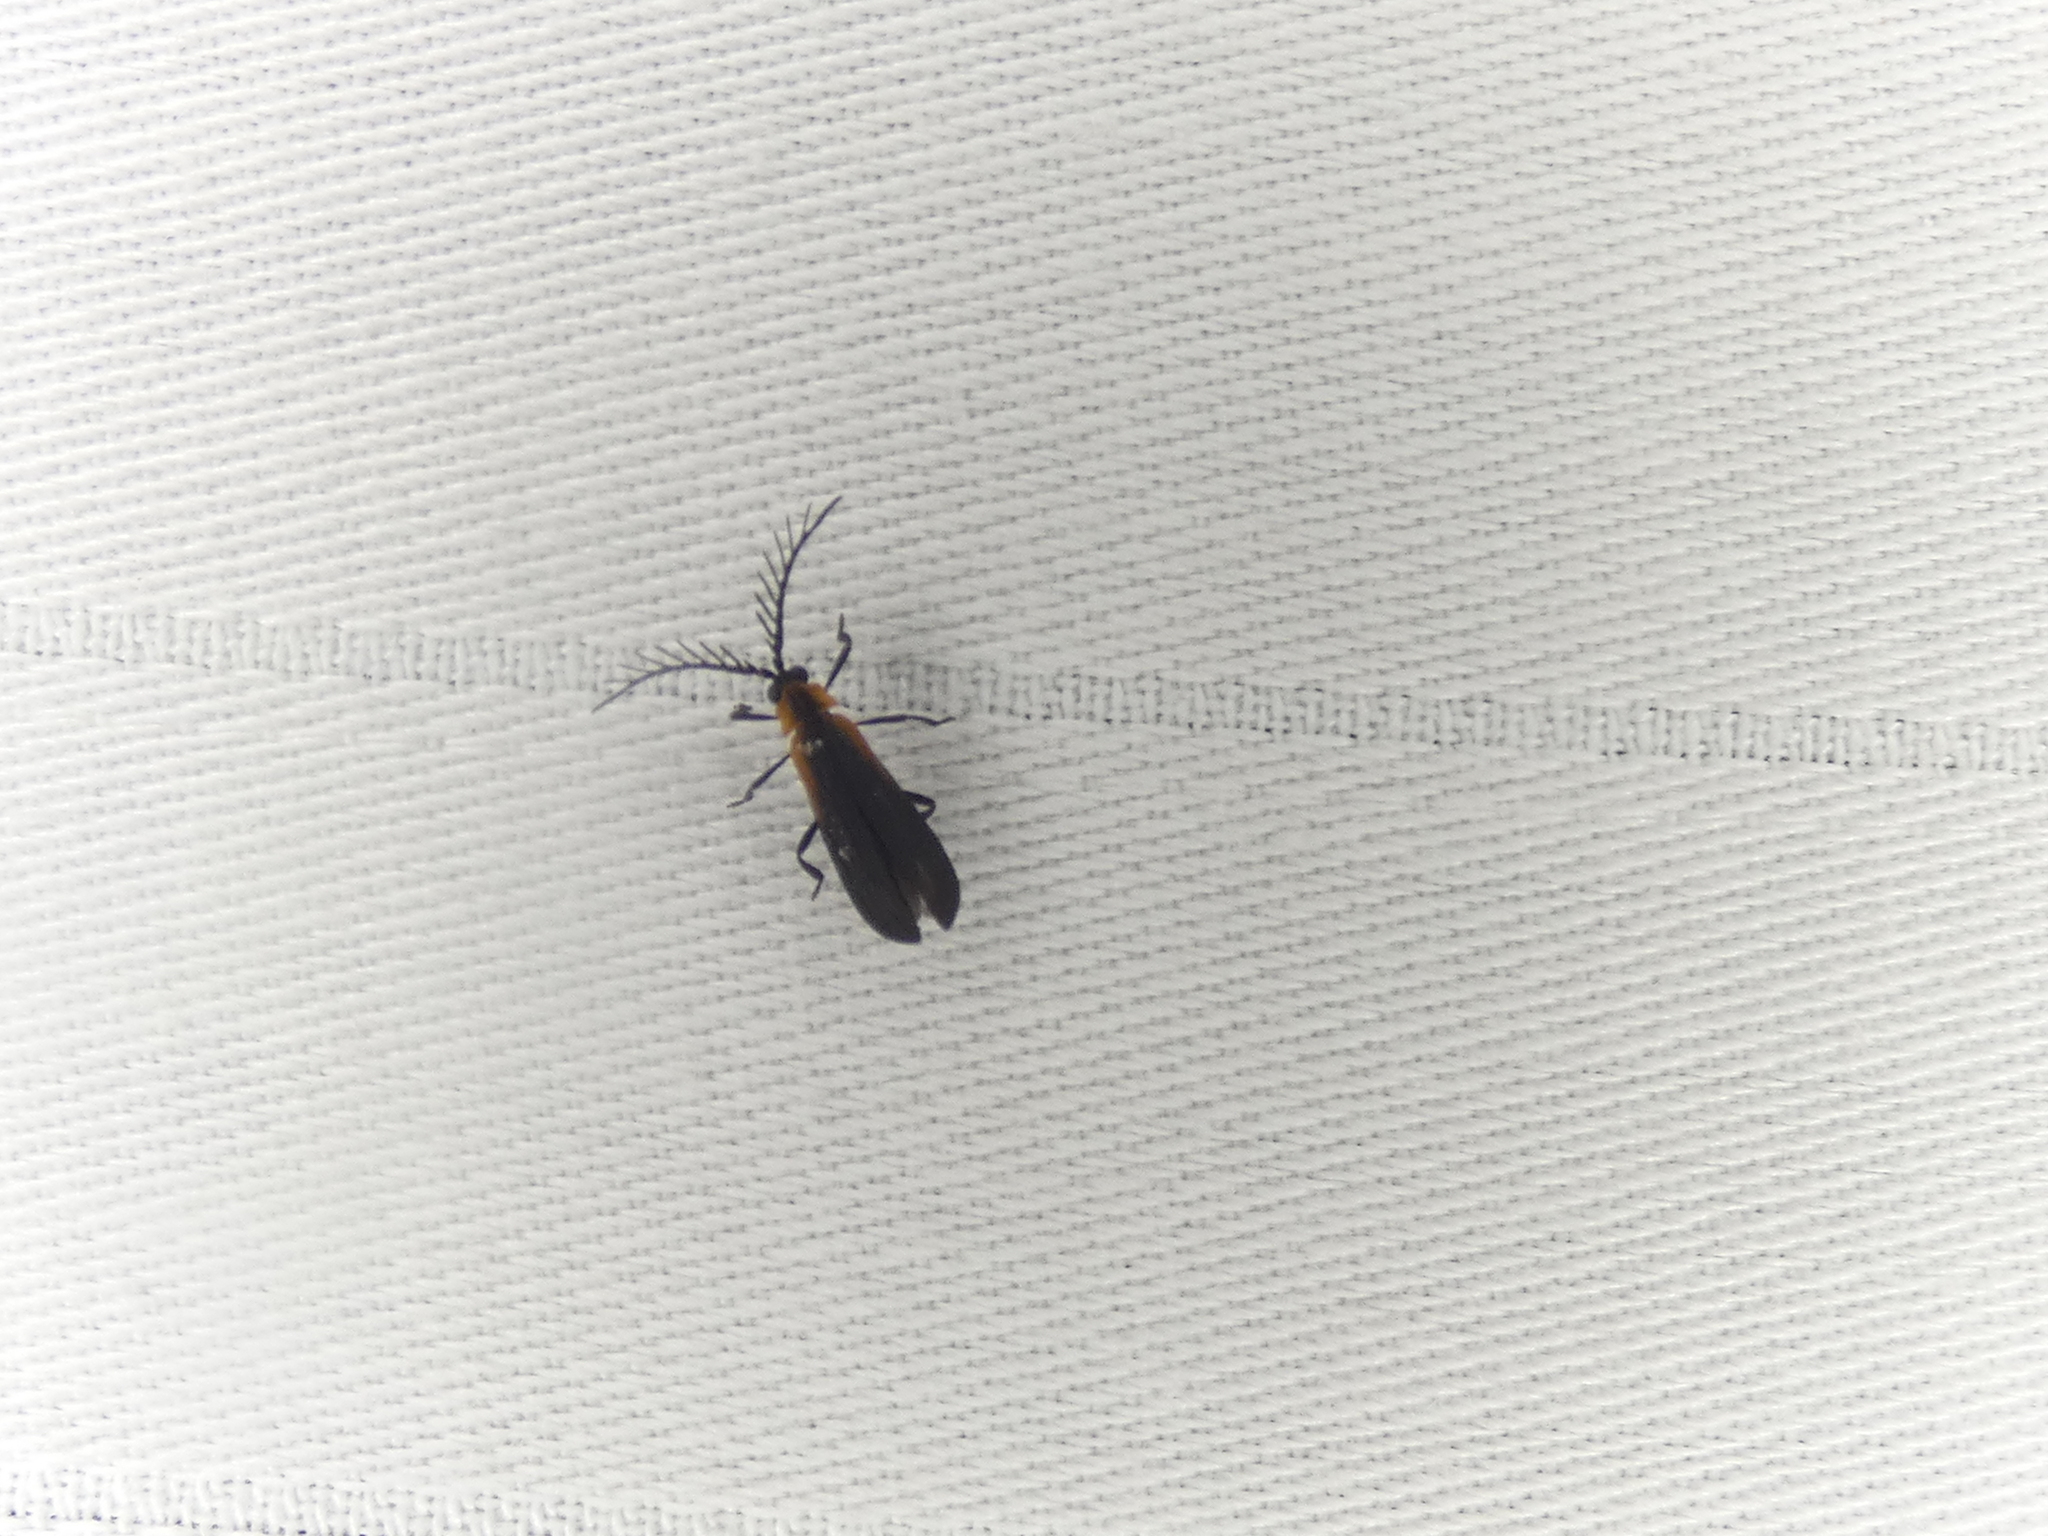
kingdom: Animalia
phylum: Arthropoda
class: Insecta
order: Coleoptera
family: Lycidae
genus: Leptoceletes
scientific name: Leptoceletes basalis
